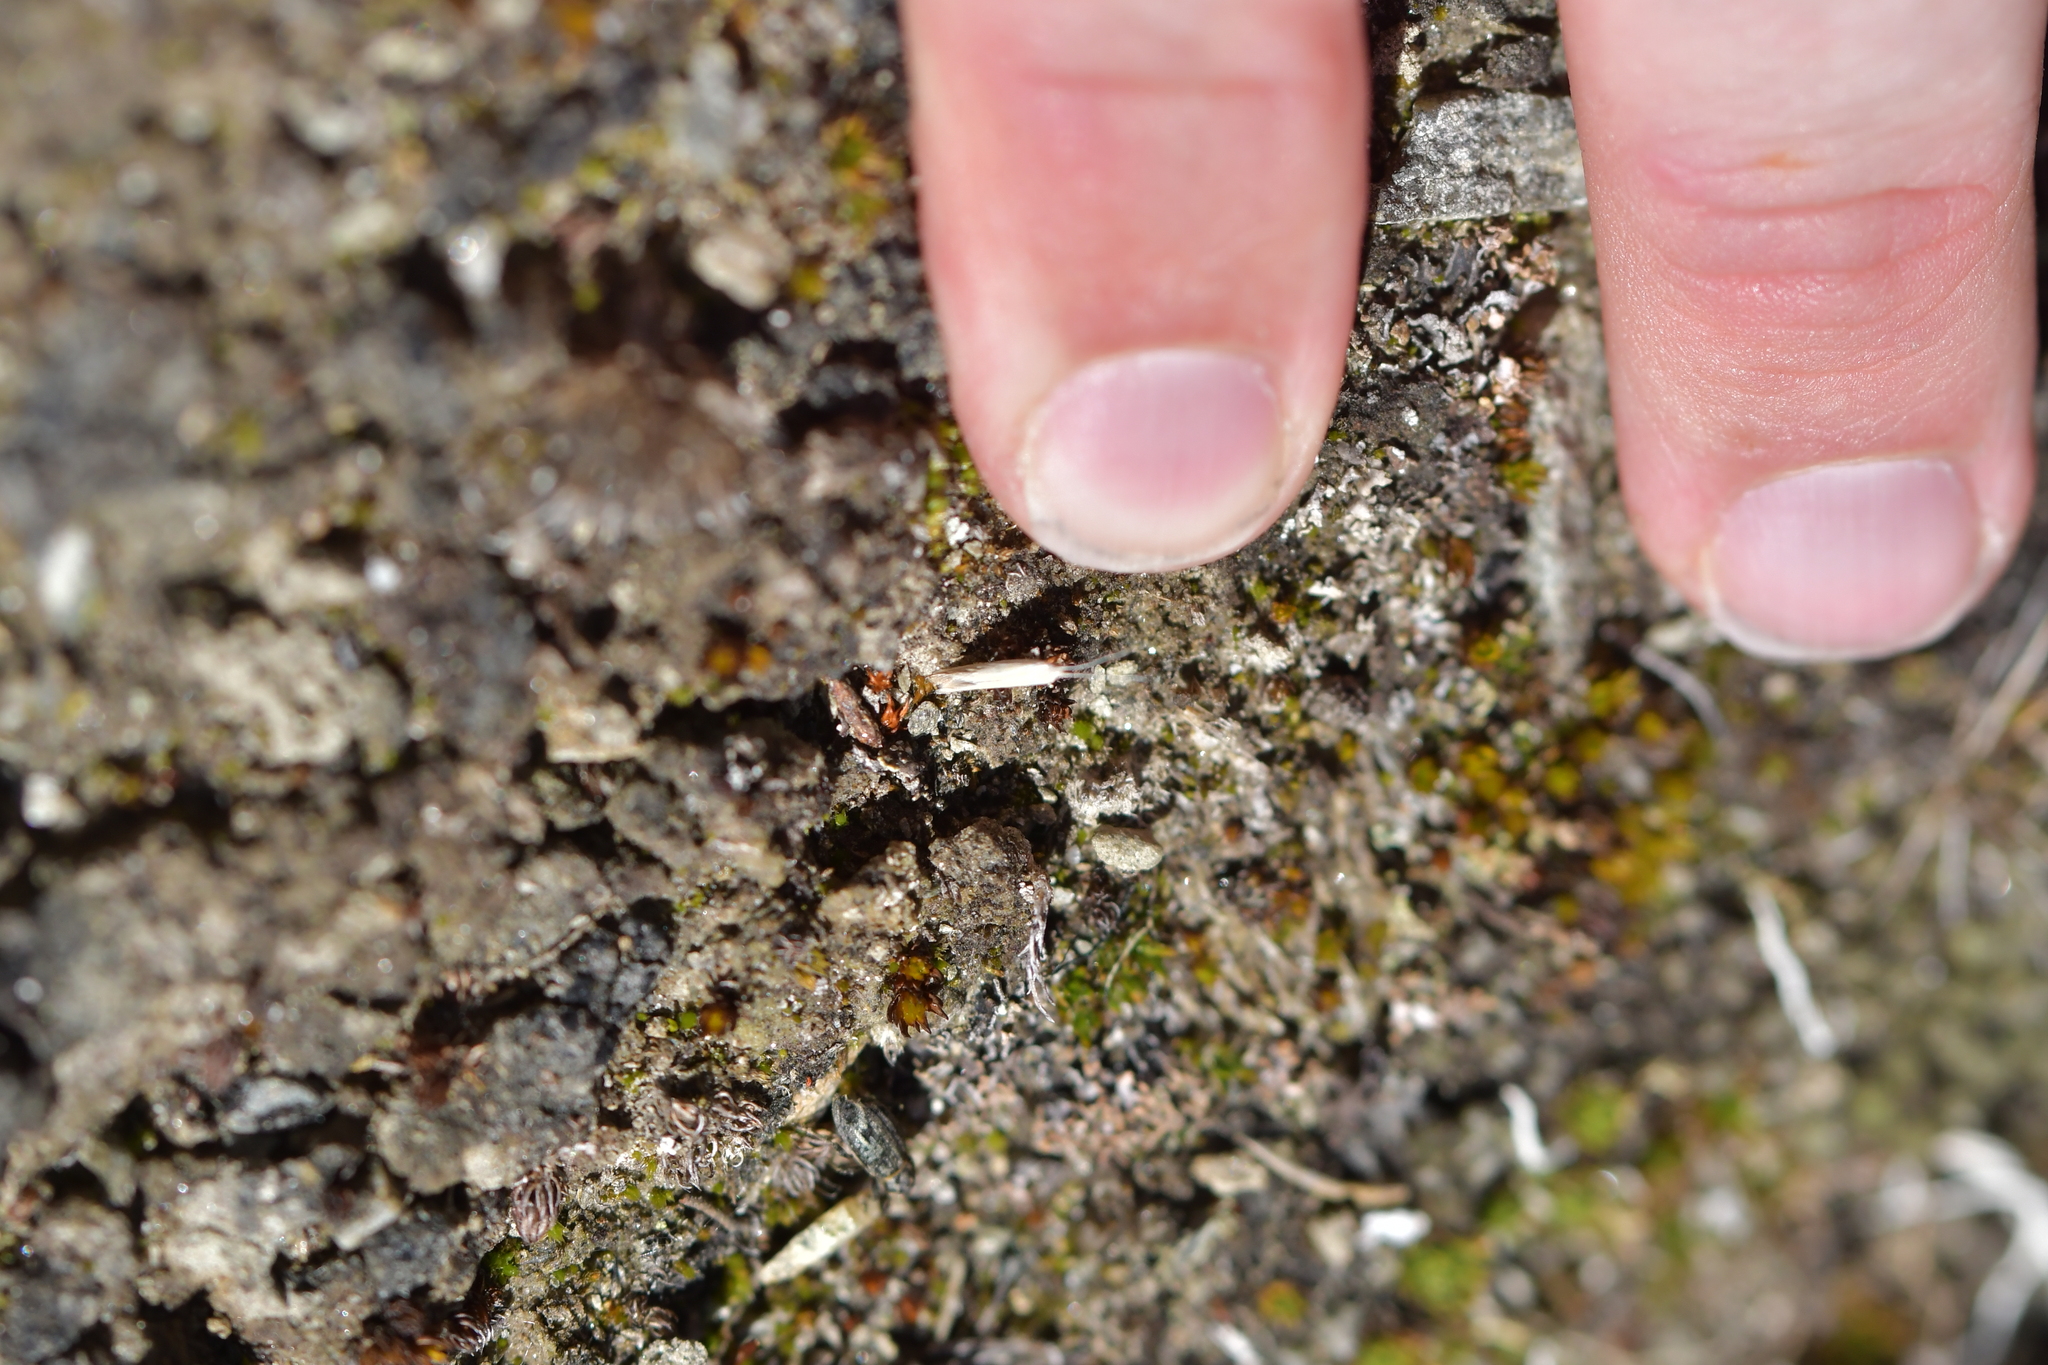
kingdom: Animalia
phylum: Arthropoda
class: Insecta
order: Lepidoptera
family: Coleophoridae
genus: Coleophora
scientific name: Coleophora striatipennella
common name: Hedge case-bearer
